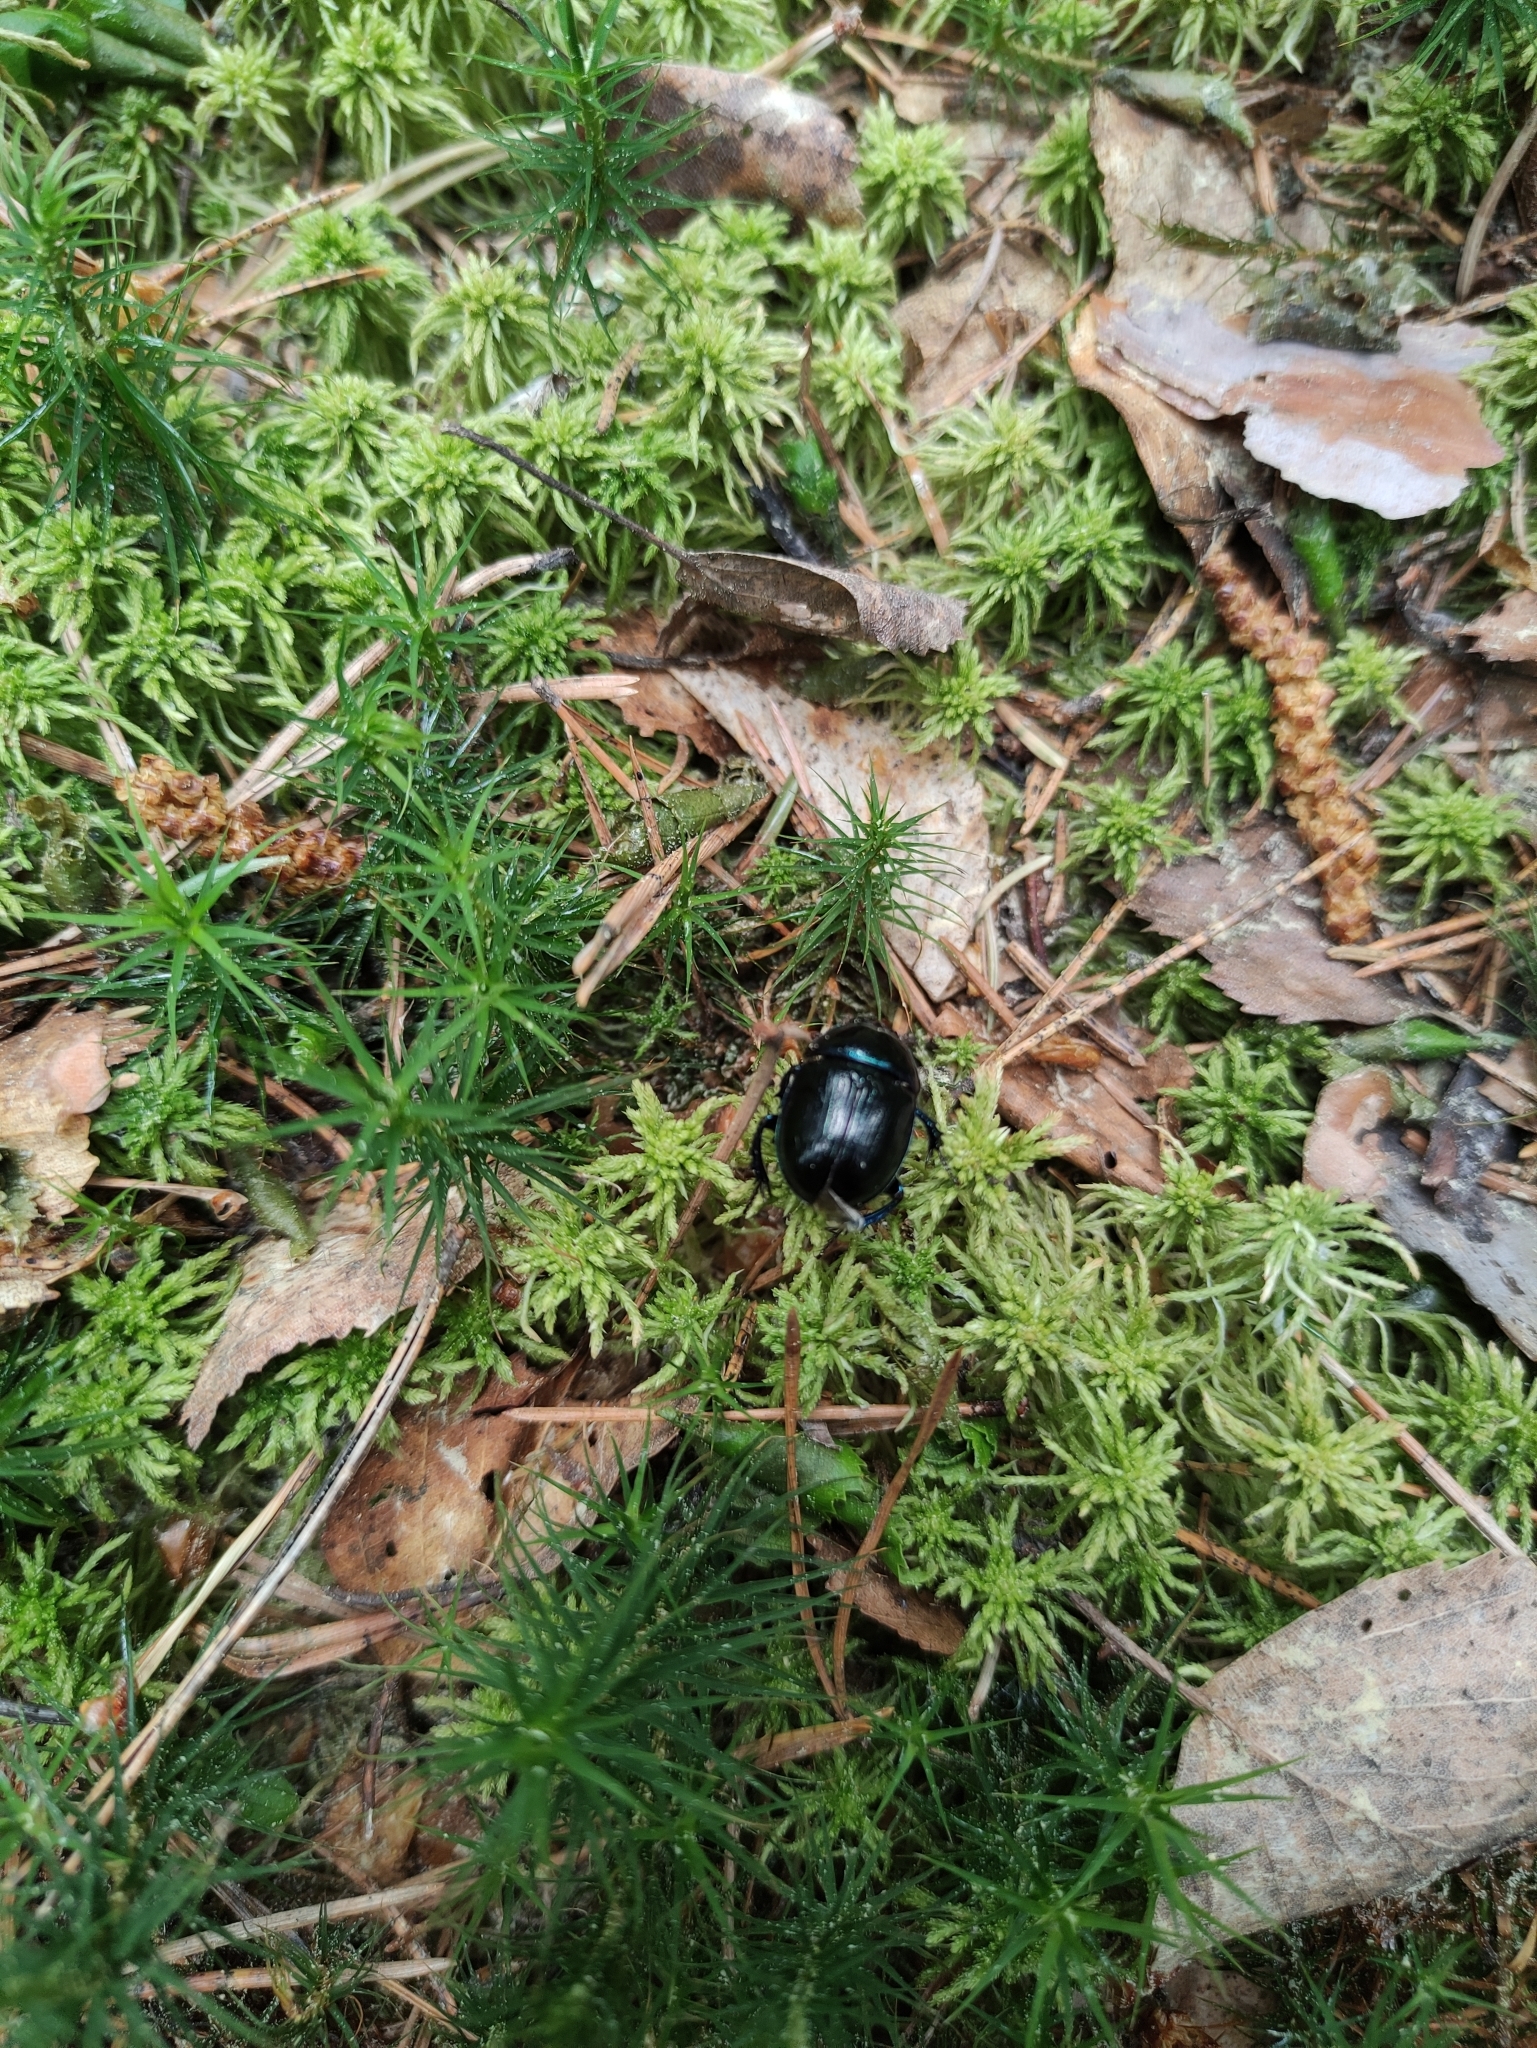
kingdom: Animalia
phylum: Arthropoda
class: Insecta
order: Coleoptera
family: Geotrupidae
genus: Anoplotrupes
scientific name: Anoplotrupes stercorosus
